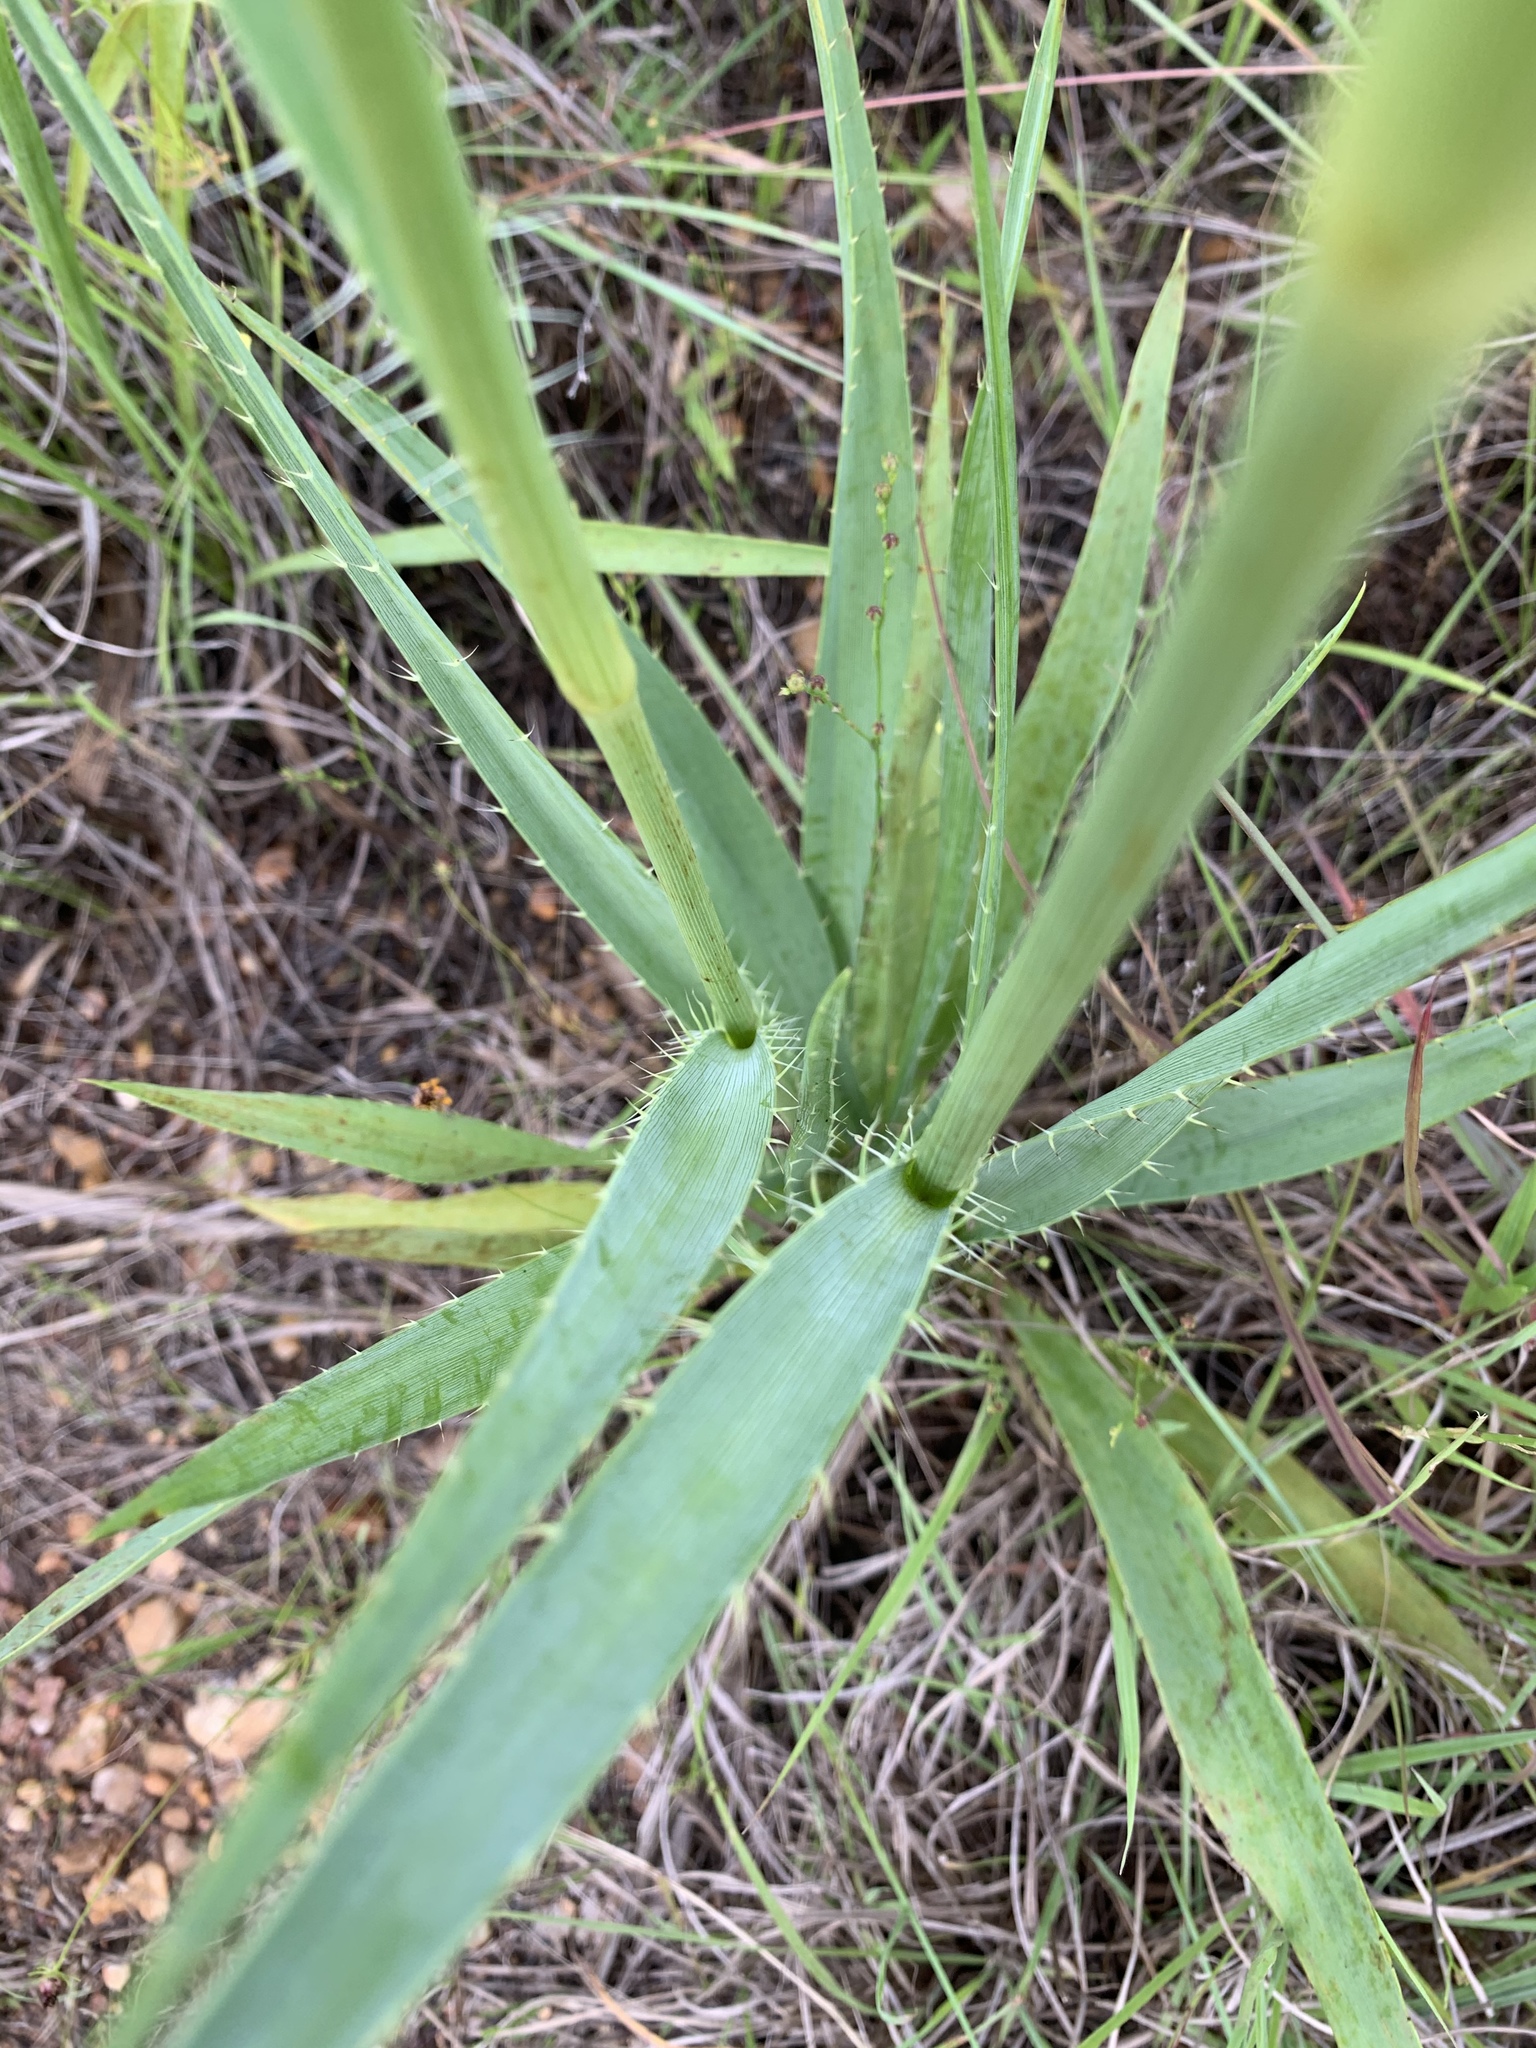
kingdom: Plantae
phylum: Tracheophyta
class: Magnoliopsida
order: Apiales
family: Apiaceae
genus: Eryngium
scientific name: Eryngium yuccifolium
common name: Button eryngo
